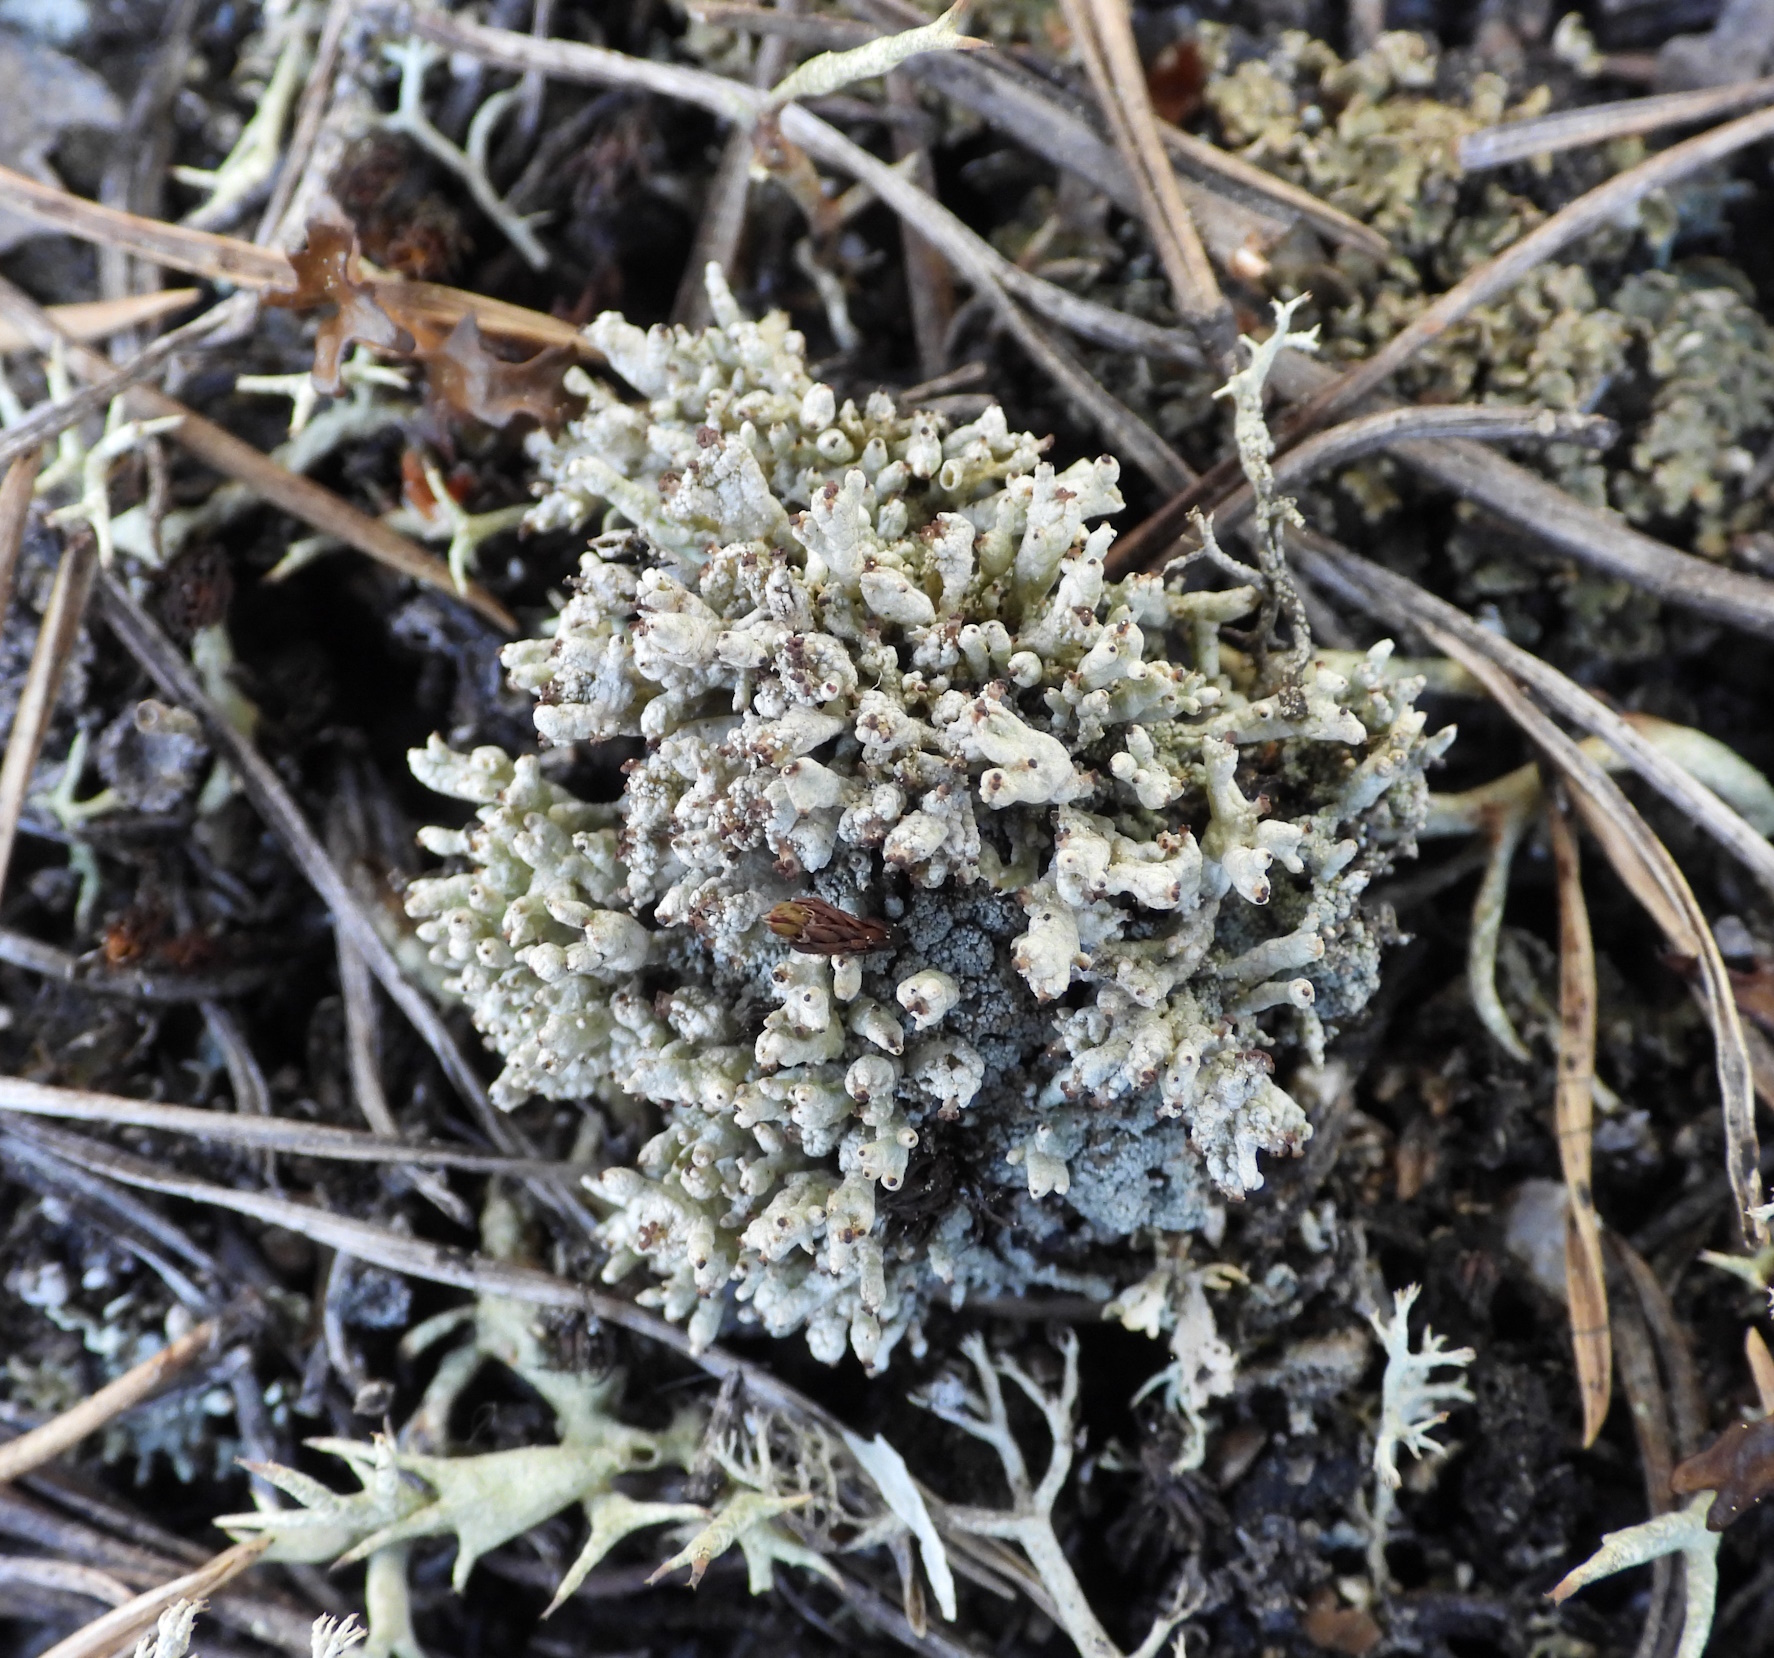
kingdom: Fungi
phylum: Ascomycota
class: Lecanoromycetes
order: Lecanorales
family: Cladoniaceae
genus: Pycnothelia
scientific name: Pycnothelia papillaria
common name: Nipple lichen
